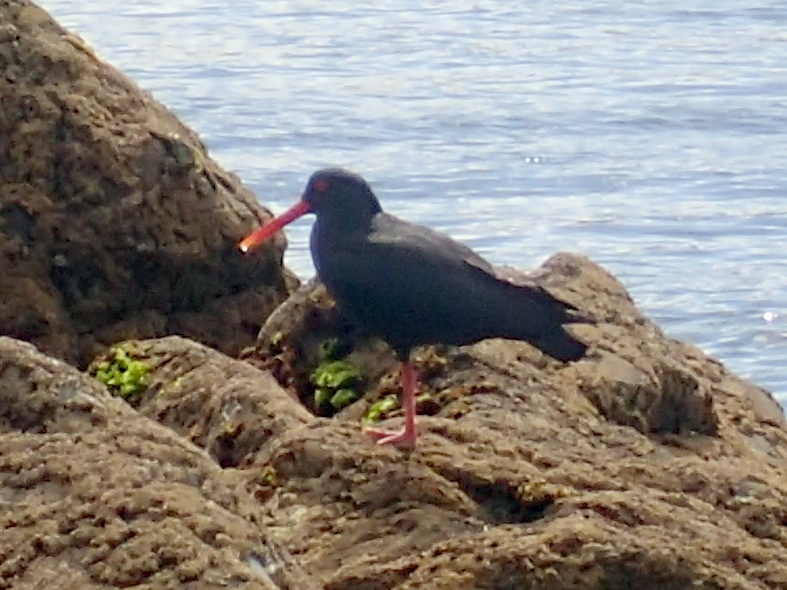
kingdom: Animalia
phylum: Chordata
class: Aves
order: Charadriiformes
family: Haematopodidae
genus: Haematopus
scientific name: Haematopus unicolor
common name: Variable oystercatcher
